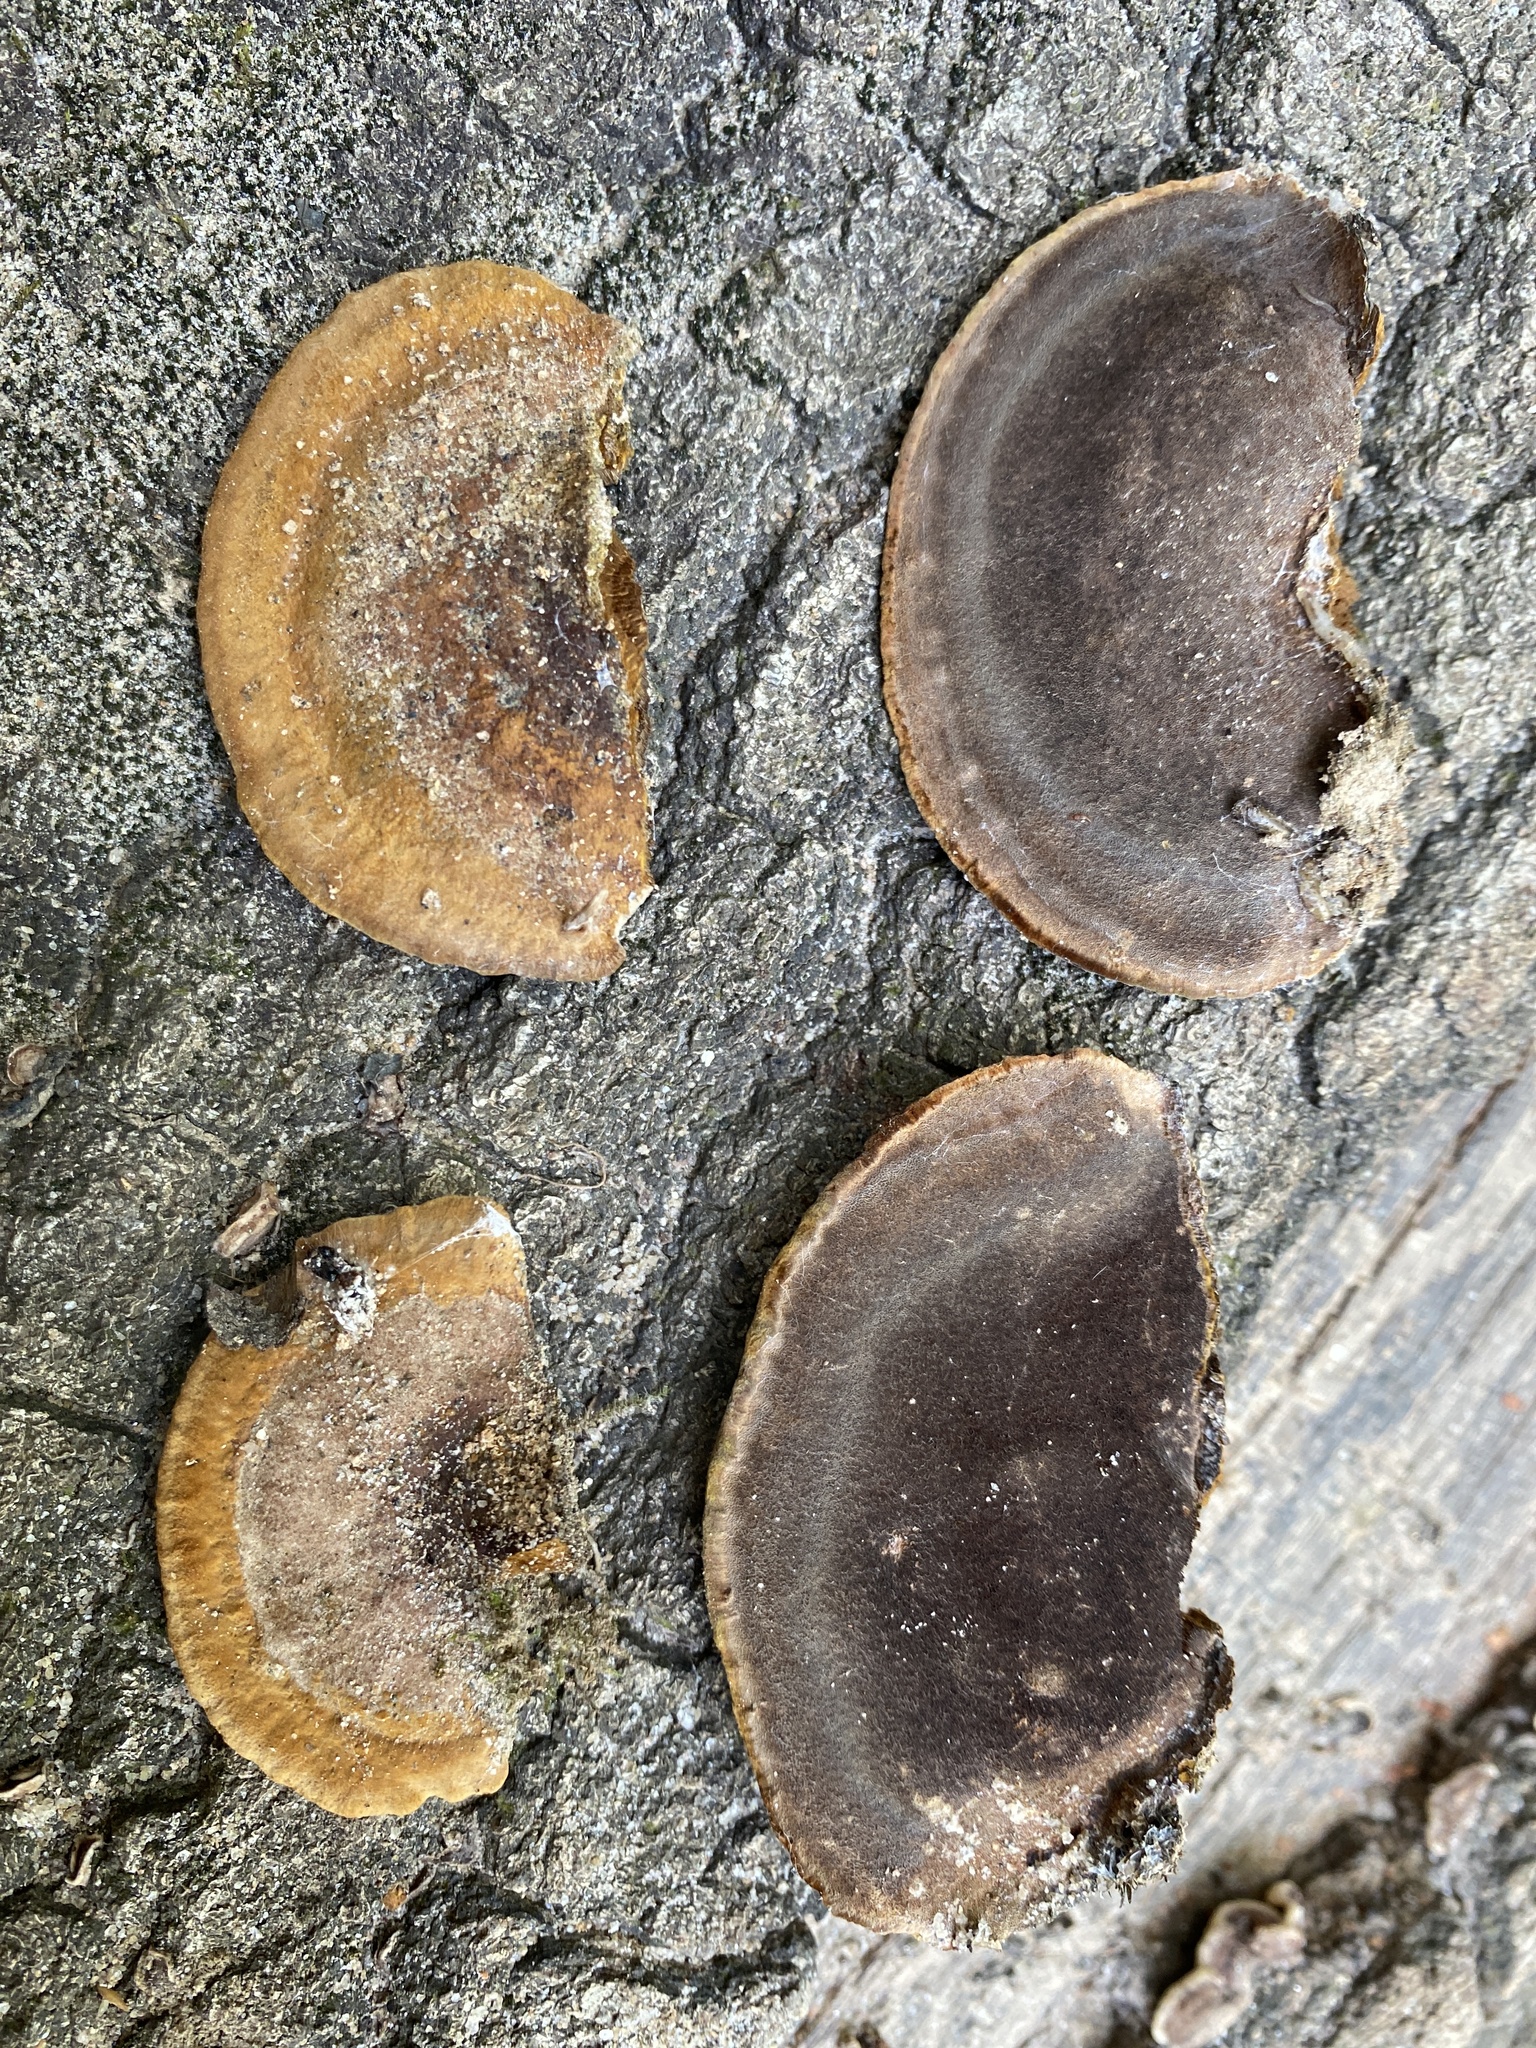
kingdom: Fungi
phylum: Basidiomycota
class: Agaricomycetes
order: Hymenochaetales
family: Hymenochaetaceae
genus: Phellinus
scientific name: Phellinus gilvus
